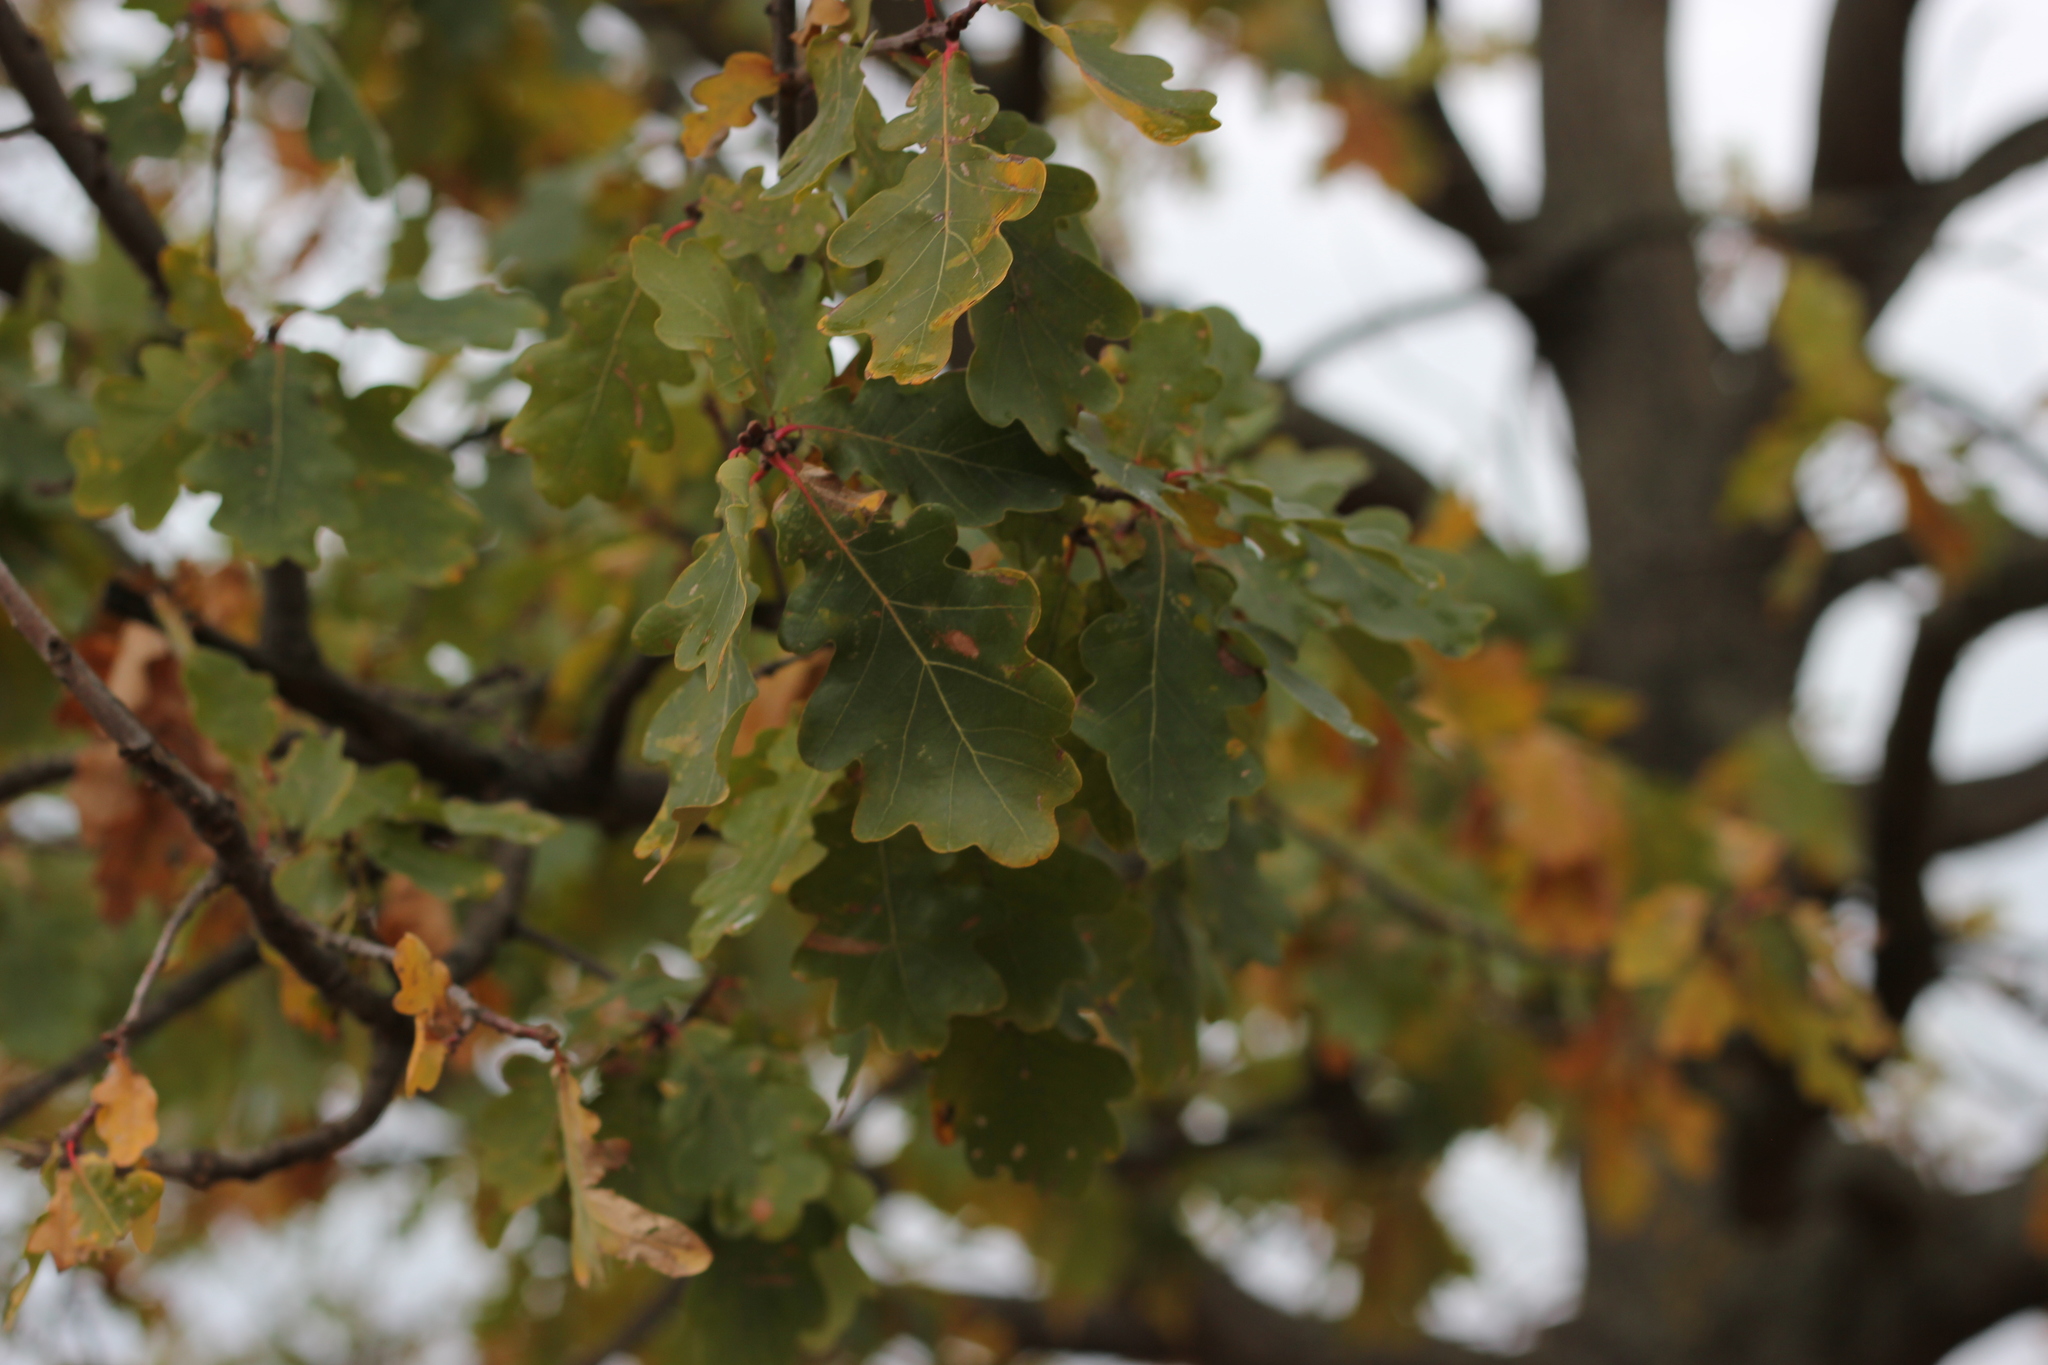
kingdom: Plantae
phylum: Tracheophyta
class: Magnoliopsida
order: Fagales
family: Fagaceae
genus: Quercus
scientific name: Quercus robur
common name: Pedunculate oak
